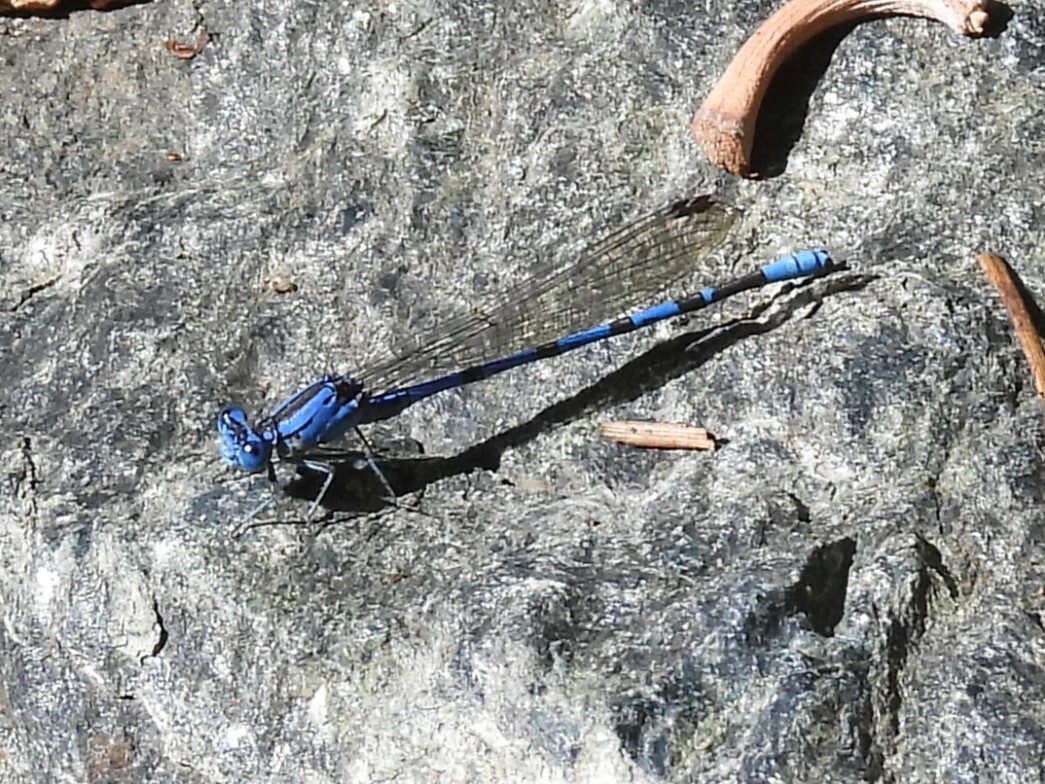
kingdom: Animalia
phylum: Arthropoda
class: Insecta
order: Odonata
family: Coenagrionidae
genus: Argia
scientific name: Argia vivida
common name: Vivid dancer
